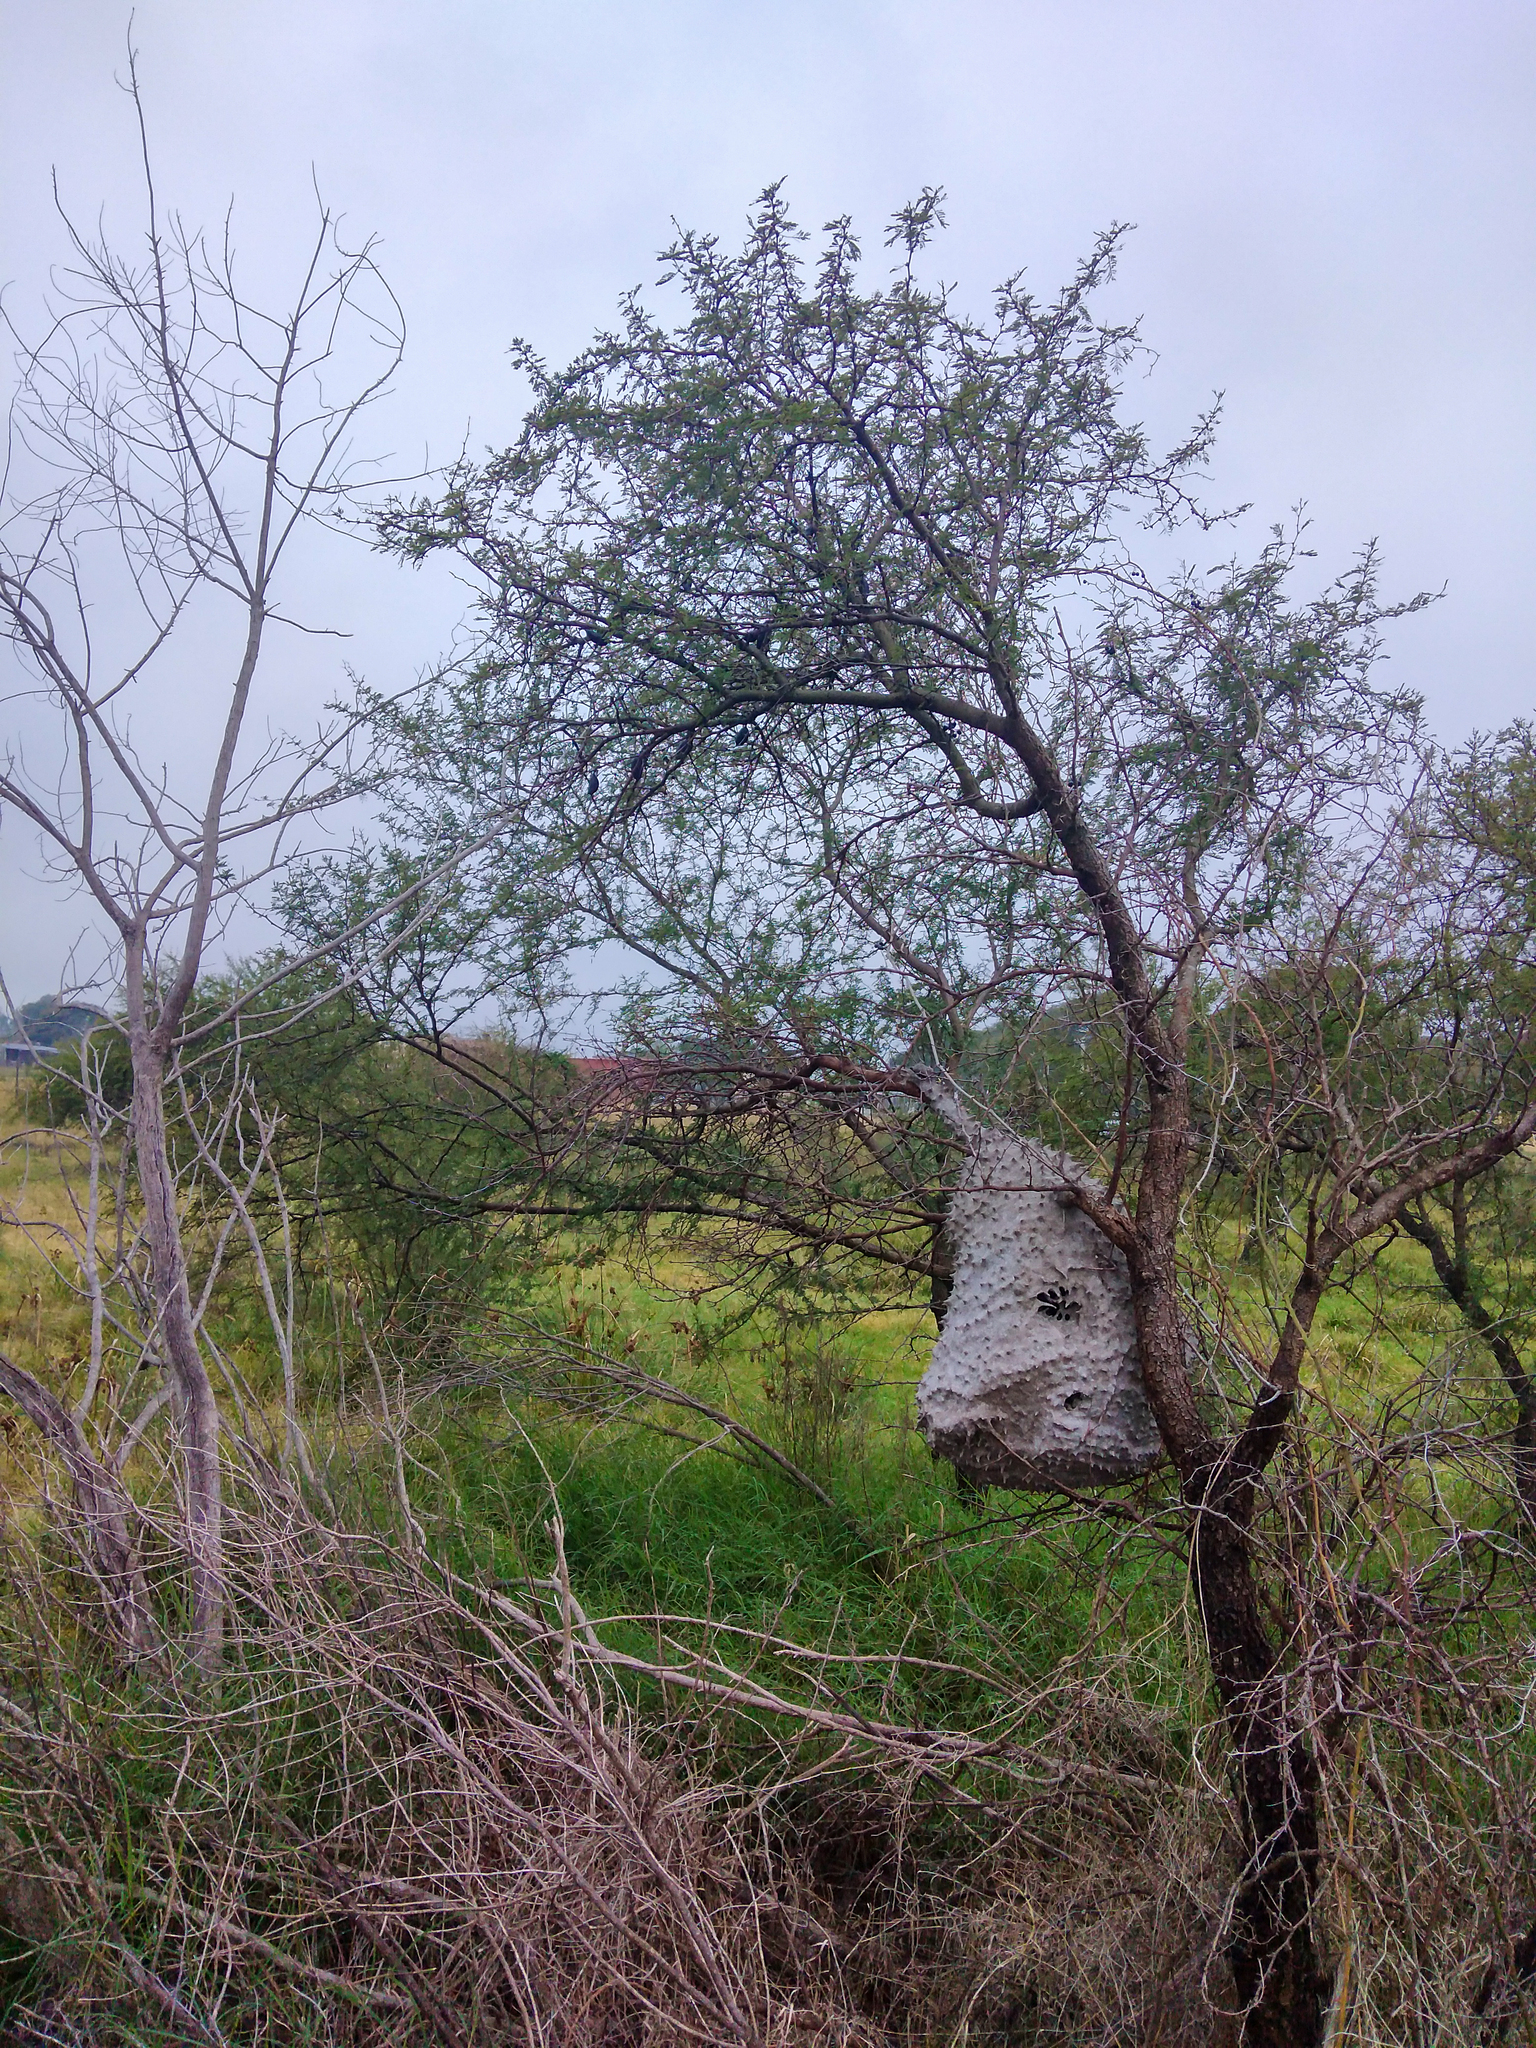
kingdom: Animalia
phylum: Arthropoda
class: Insecta
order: Hymenoptera
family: Eumenidae
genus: Polybia
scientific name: Polybia scutellaris
